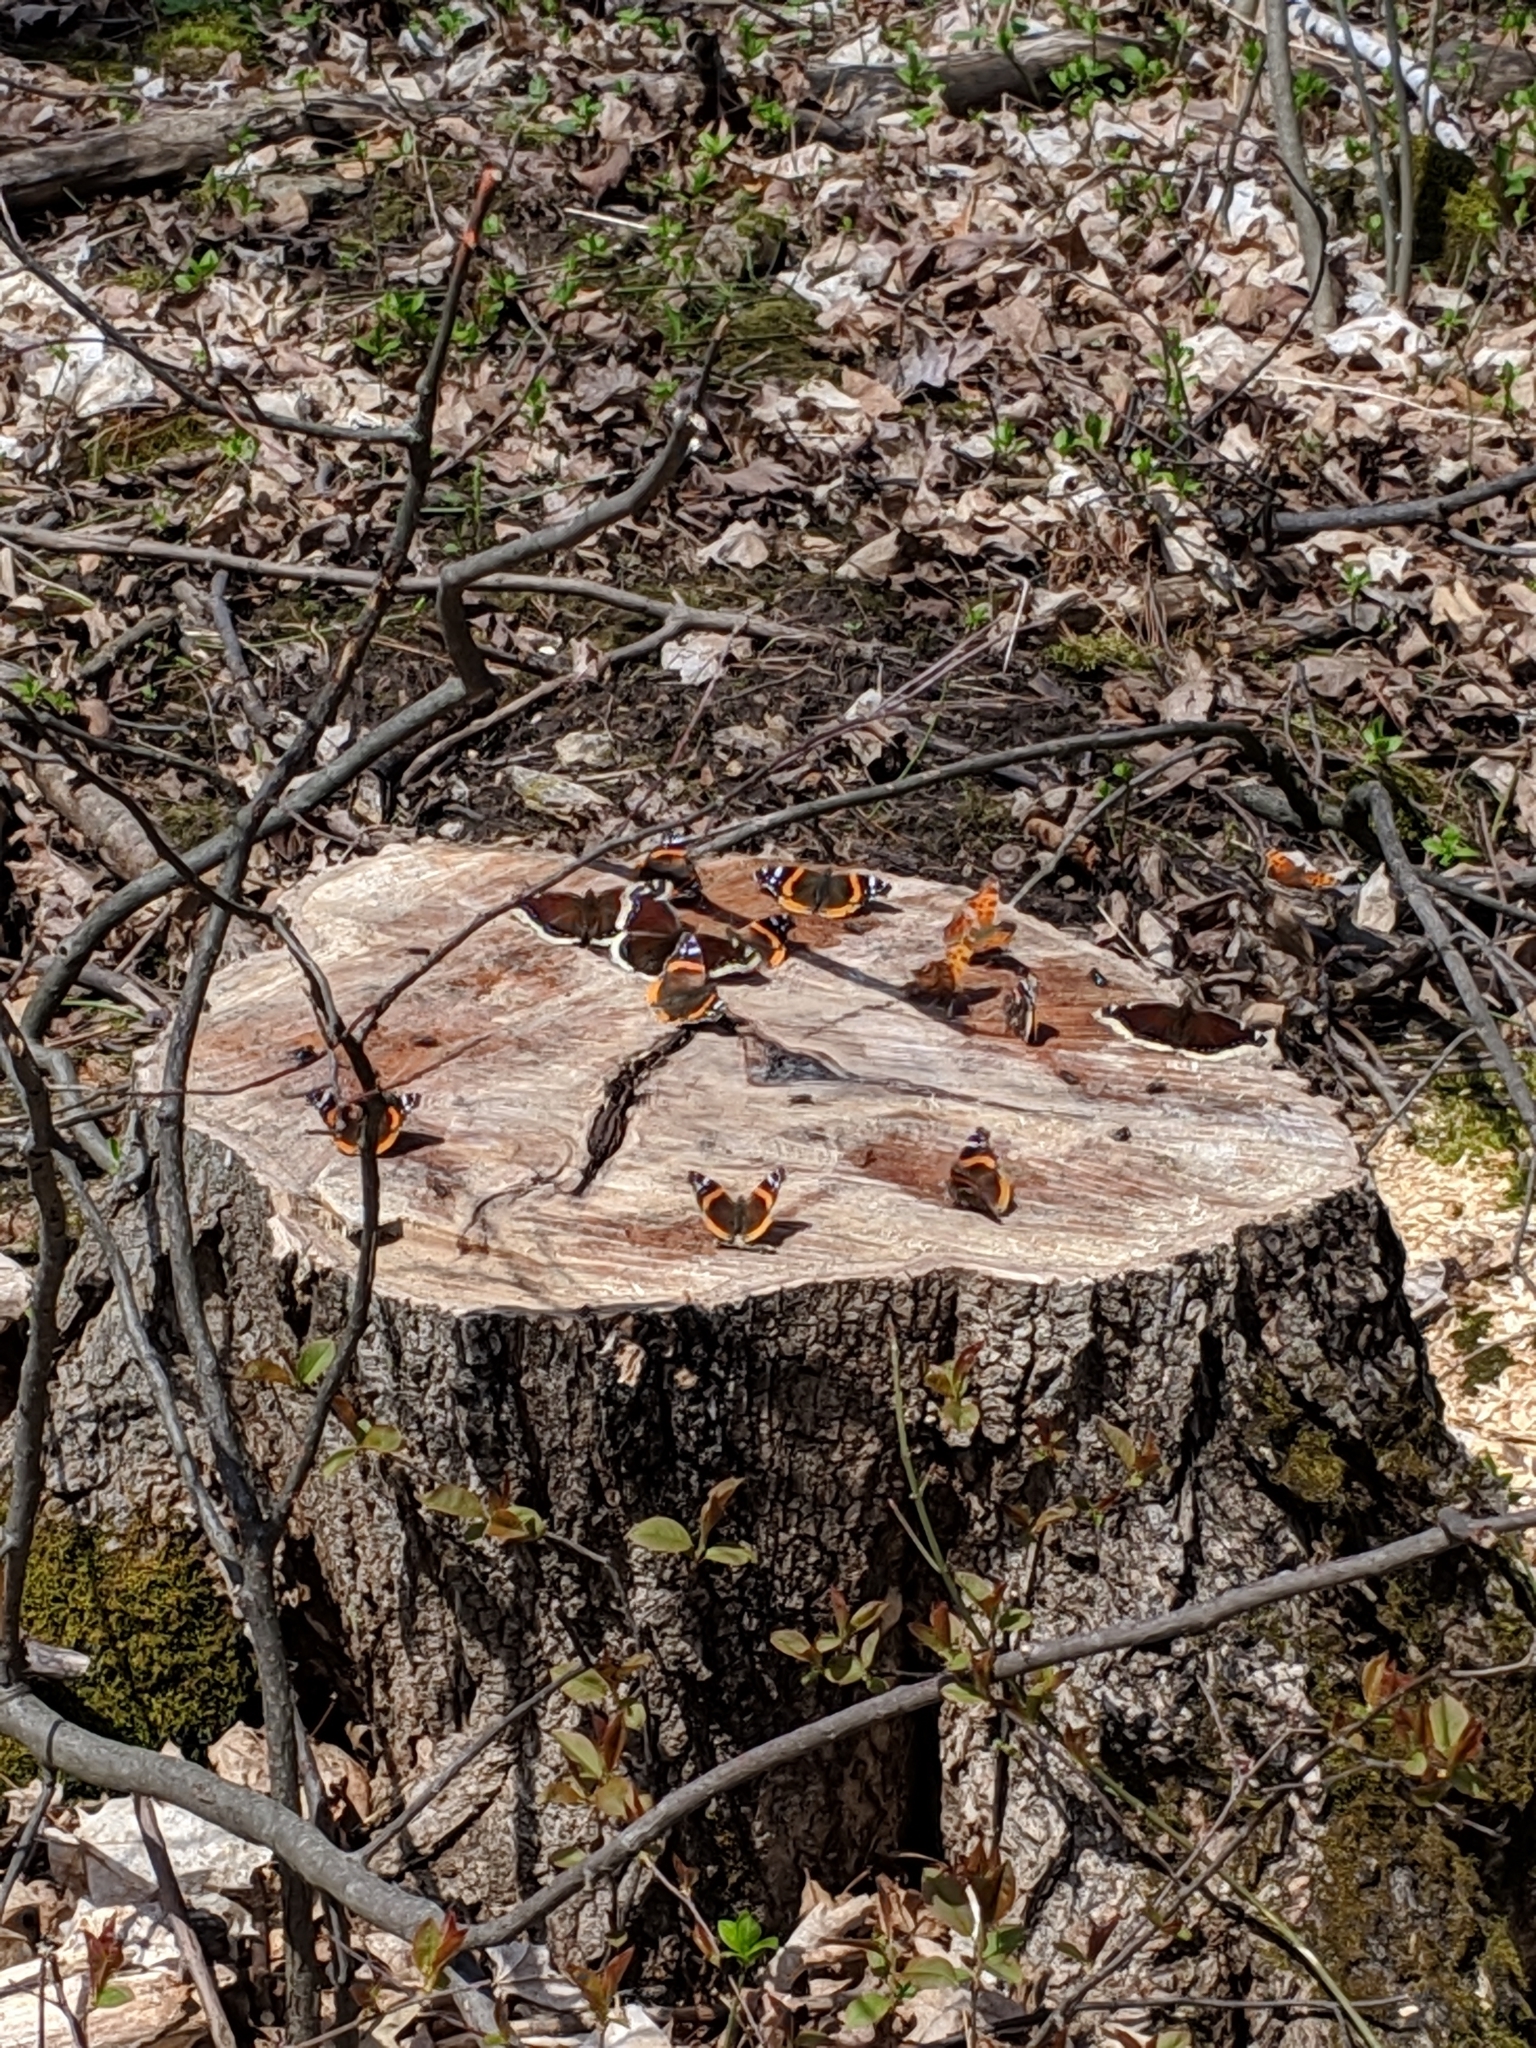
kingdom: Animalia
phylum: Arthropoda
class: Insecta
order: Lepidoptera
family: Nymphalidae
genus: Vanessa
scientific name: Vanessa atalanta
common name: Red admiral
